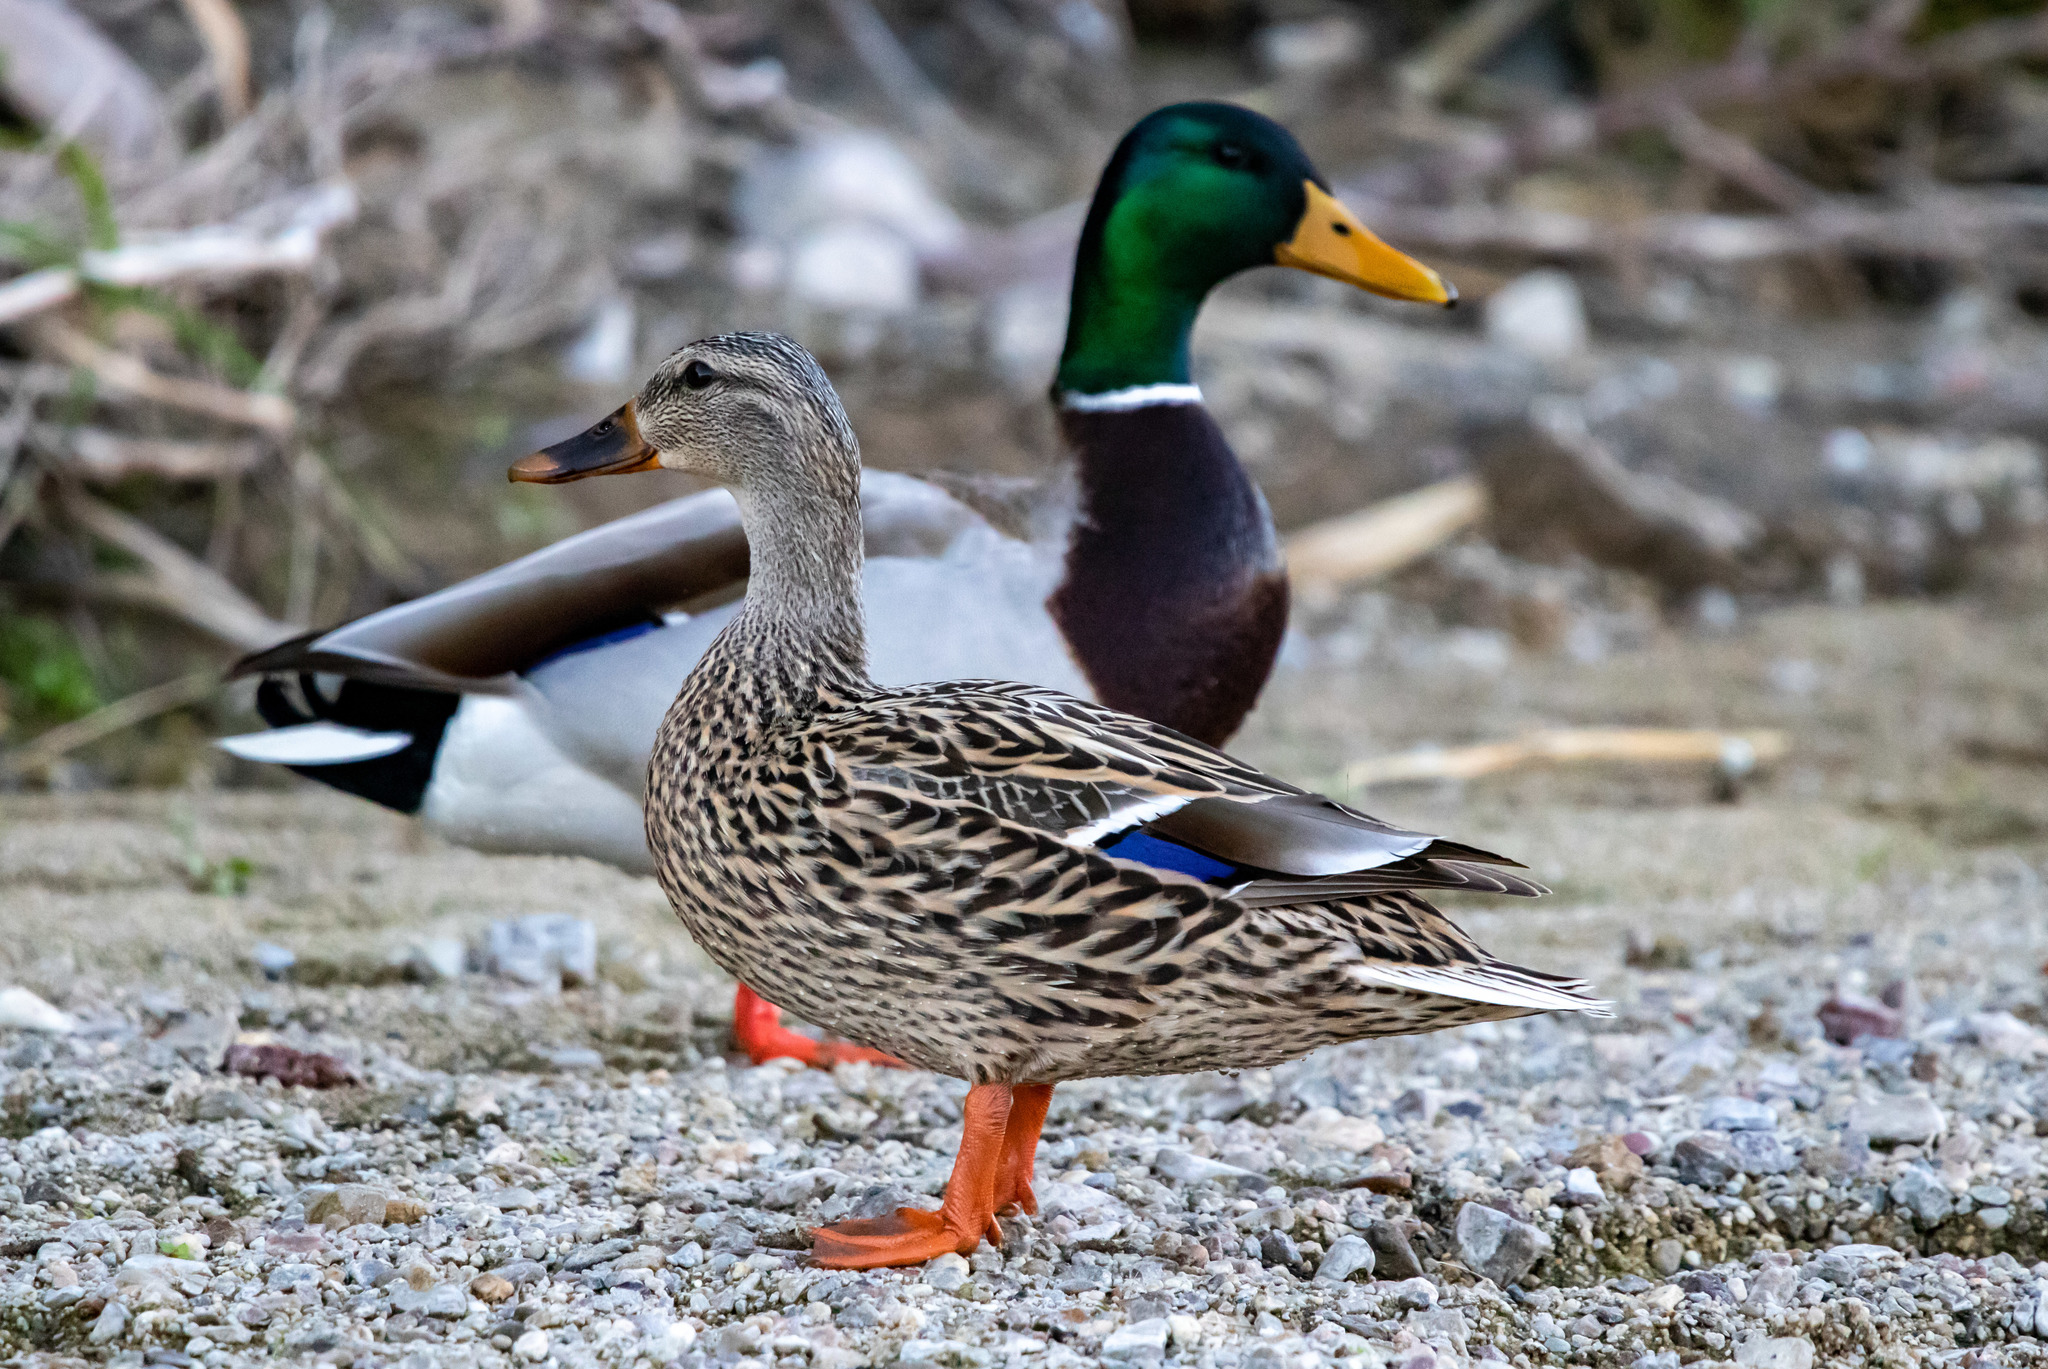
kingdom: Animalia
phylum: Chordata
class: Aves
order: Anseriformes
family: Anatidae
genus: Anas
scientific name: Anas platyrhynchos
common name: Mallard
